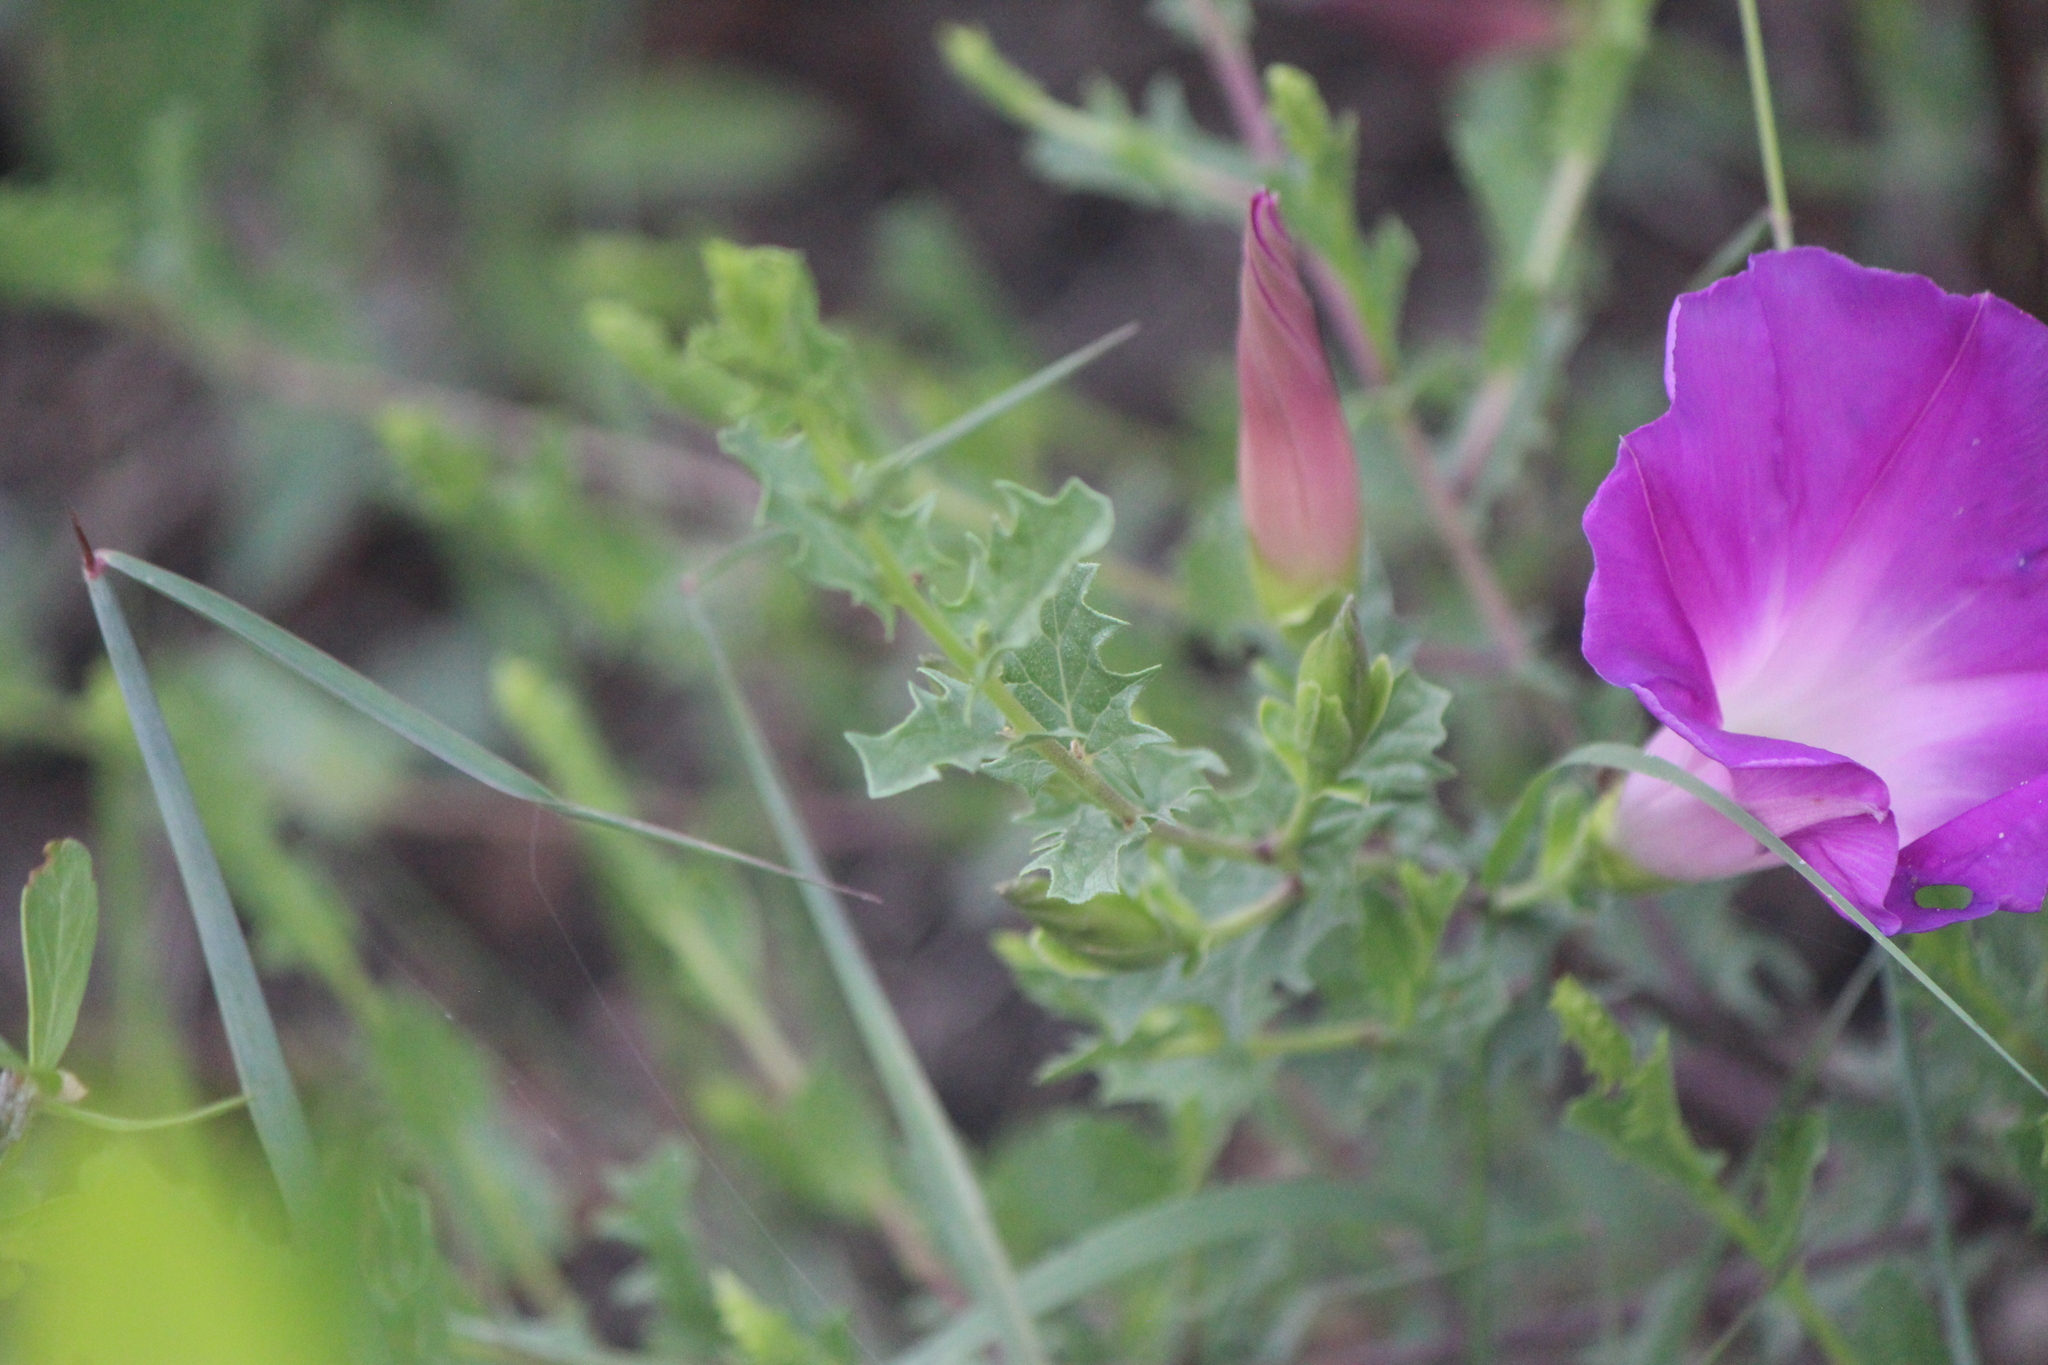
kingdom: Plantae
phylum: Tracheophyta
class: Magnoliopsida
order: Solanales
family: Convolvulaceae
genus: Ipomoea
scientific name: Ipomoea stans
